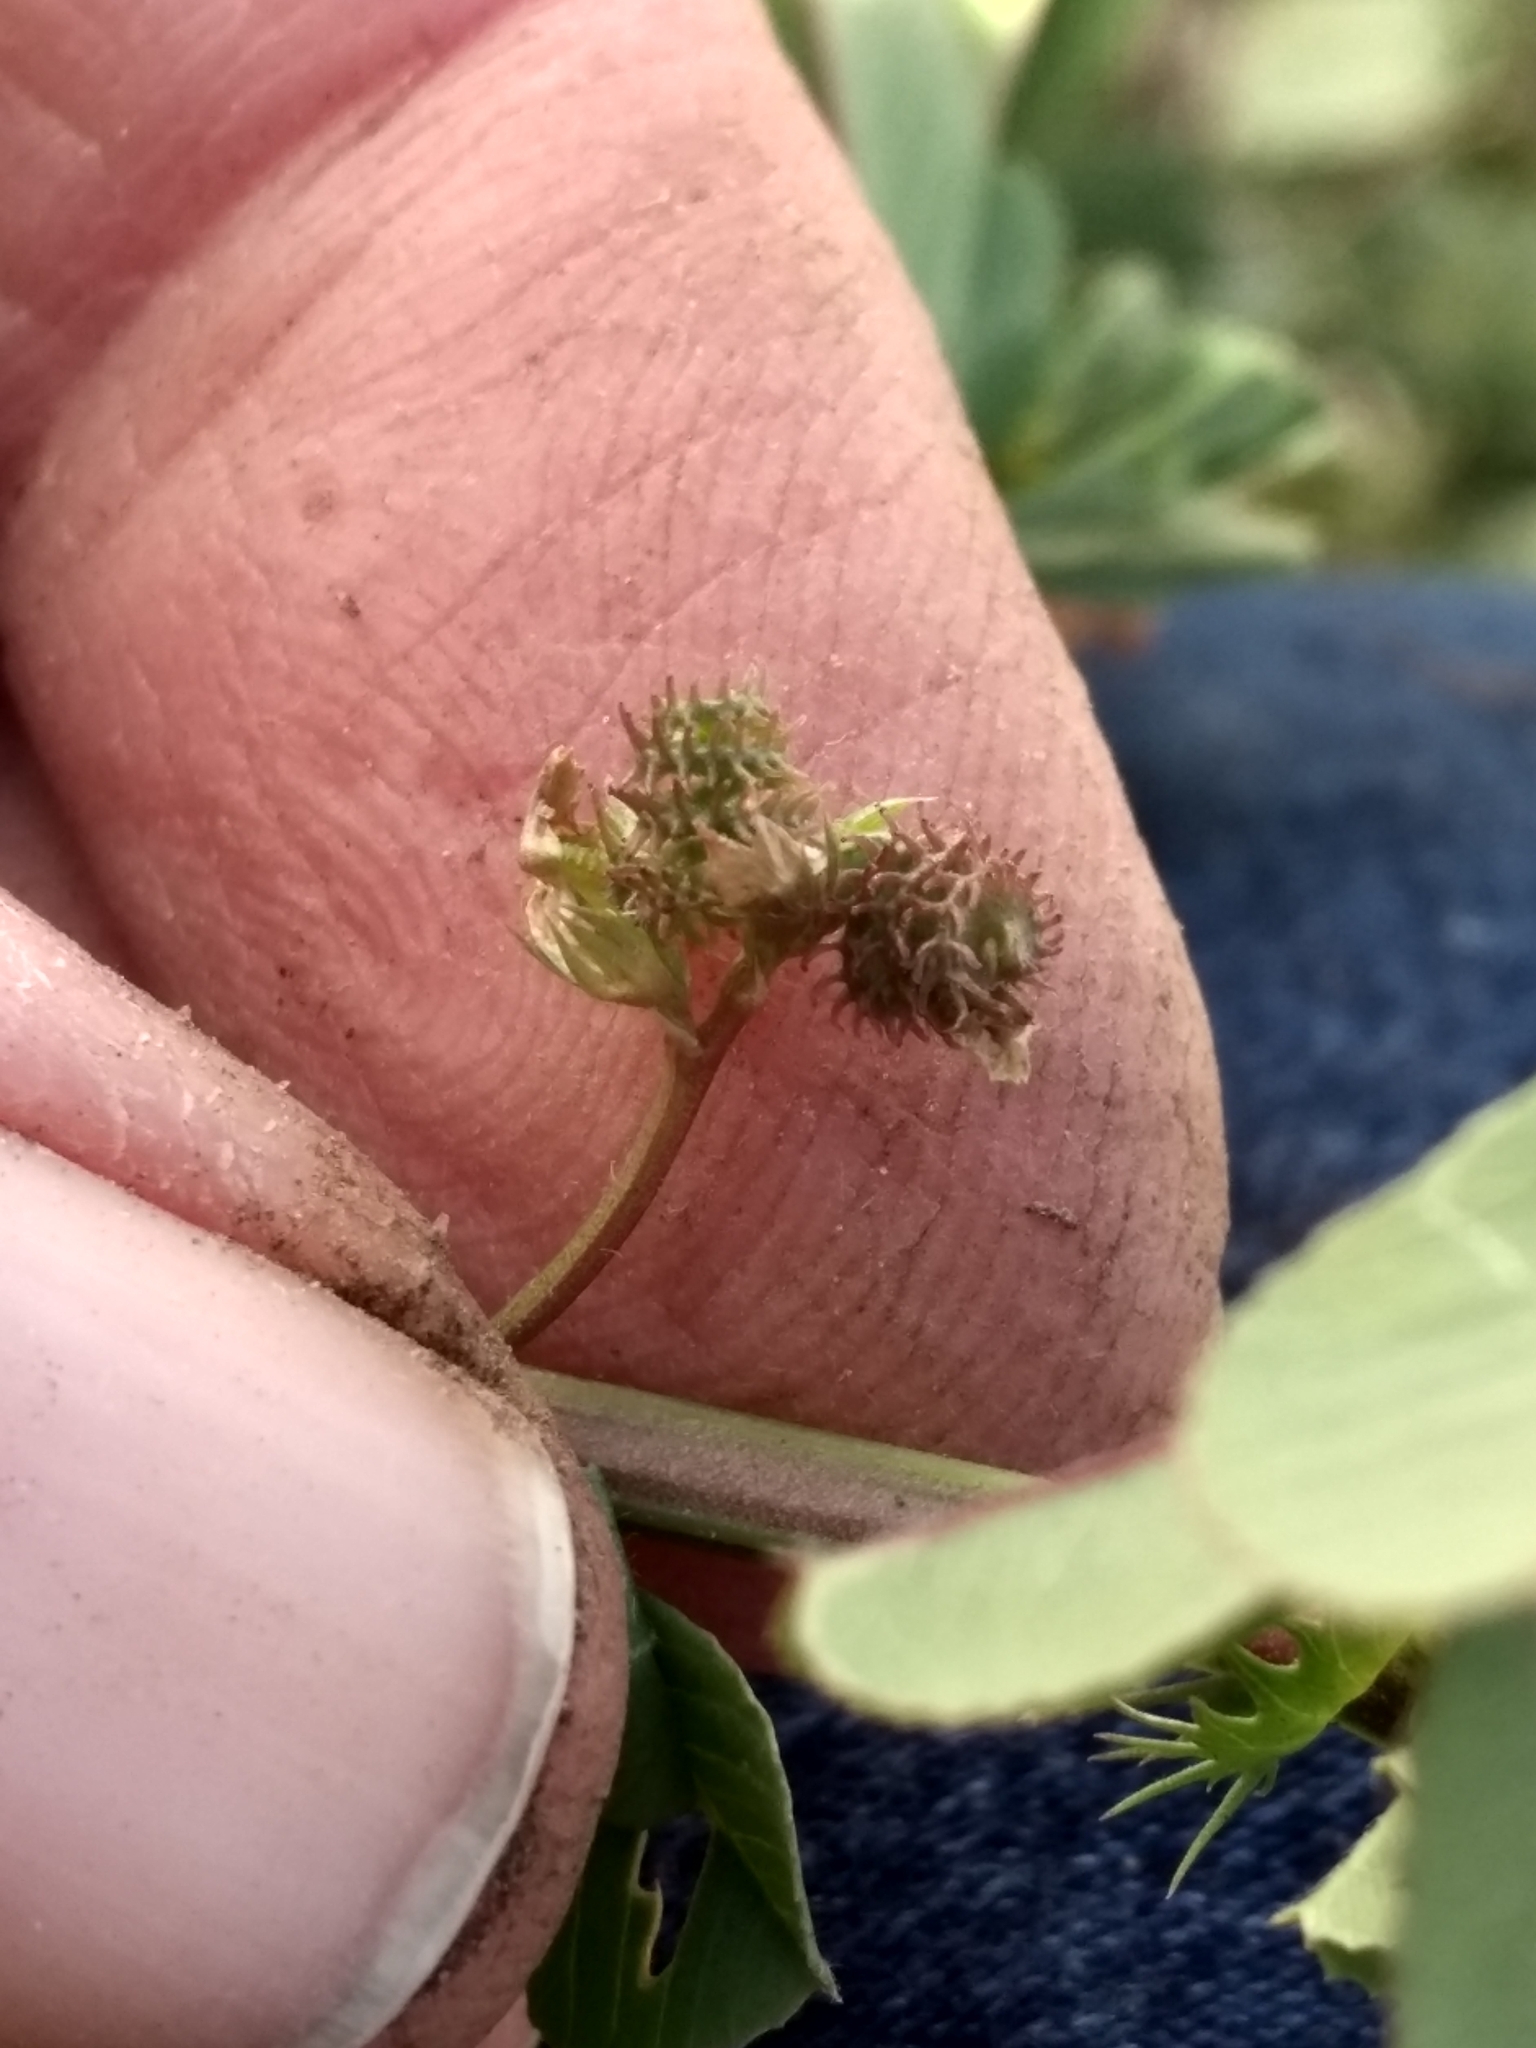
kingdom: Plantae
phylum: Tracheophyta
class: Magnoliopsida
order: Fabales
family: Fabaceae
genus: Medicago
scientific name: Medicago polymorpha
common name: Burclover
